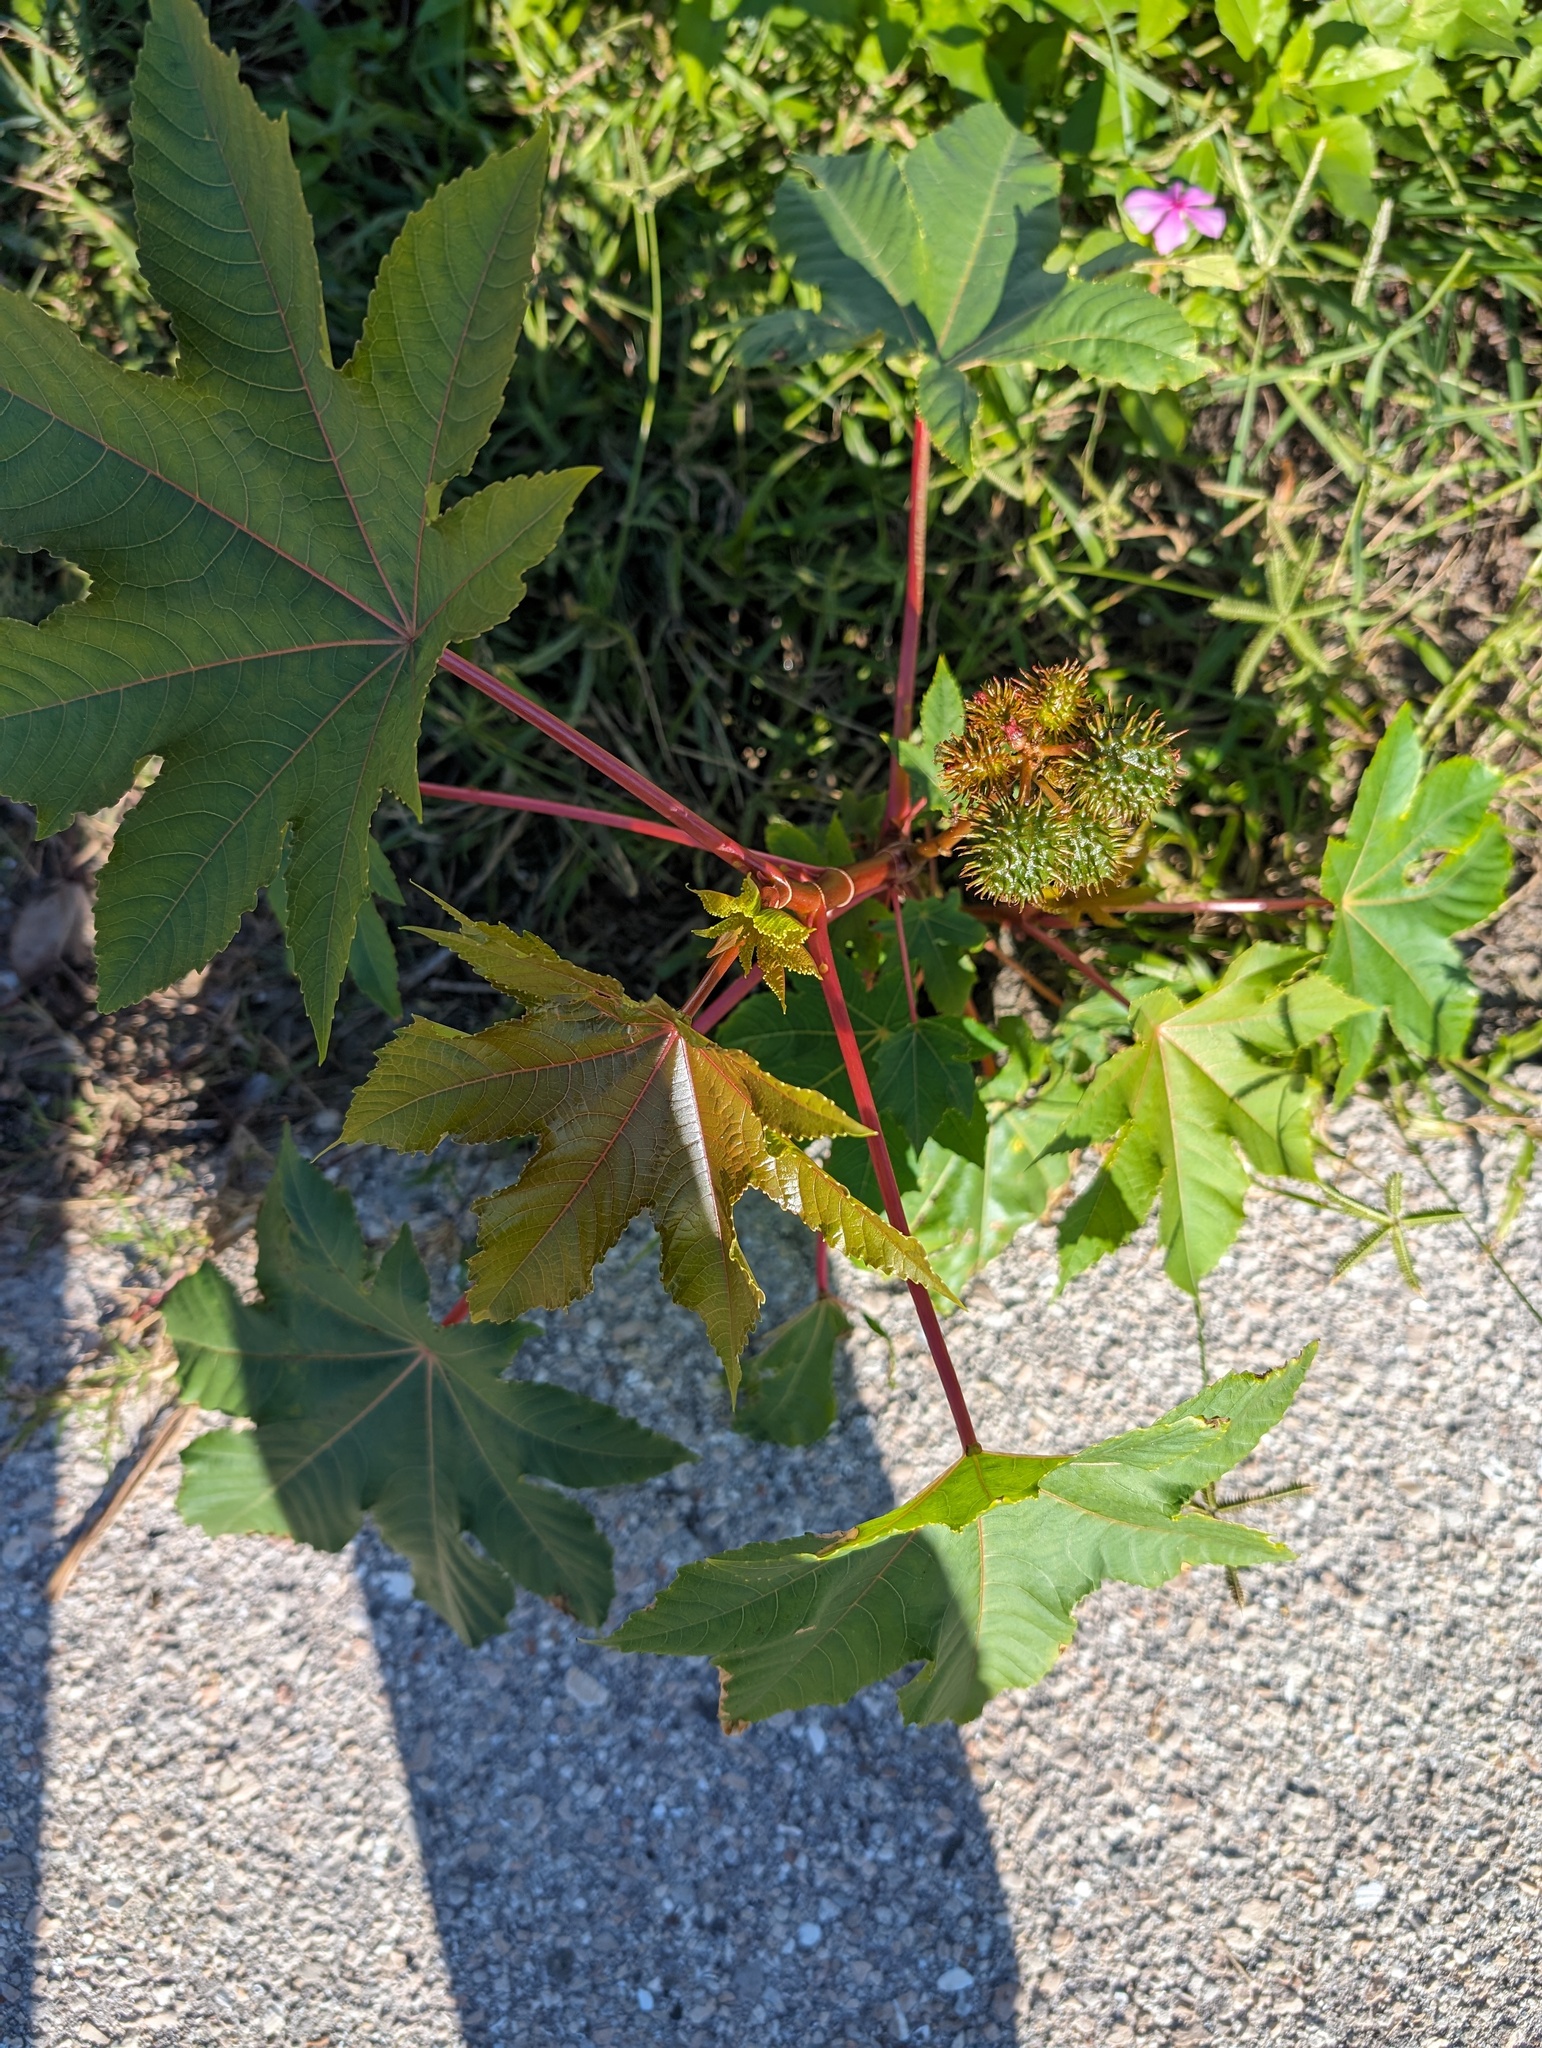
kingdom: Plantae
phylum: Tracheophyta
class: Magnoliopsida
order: Malpighiales
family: Euphorbiaceae
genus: Ricinus
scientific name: Ricinus communis
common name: Castor-oil-plant
